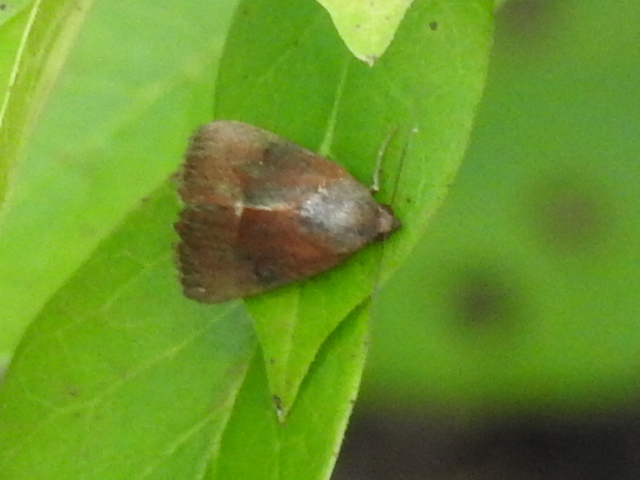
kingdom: Animalia
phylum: Arthropoda
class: Insecta
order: Lepidoptera
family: Noctuidae
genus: Galgula
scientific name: Galgula partita
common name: Wedgeling
